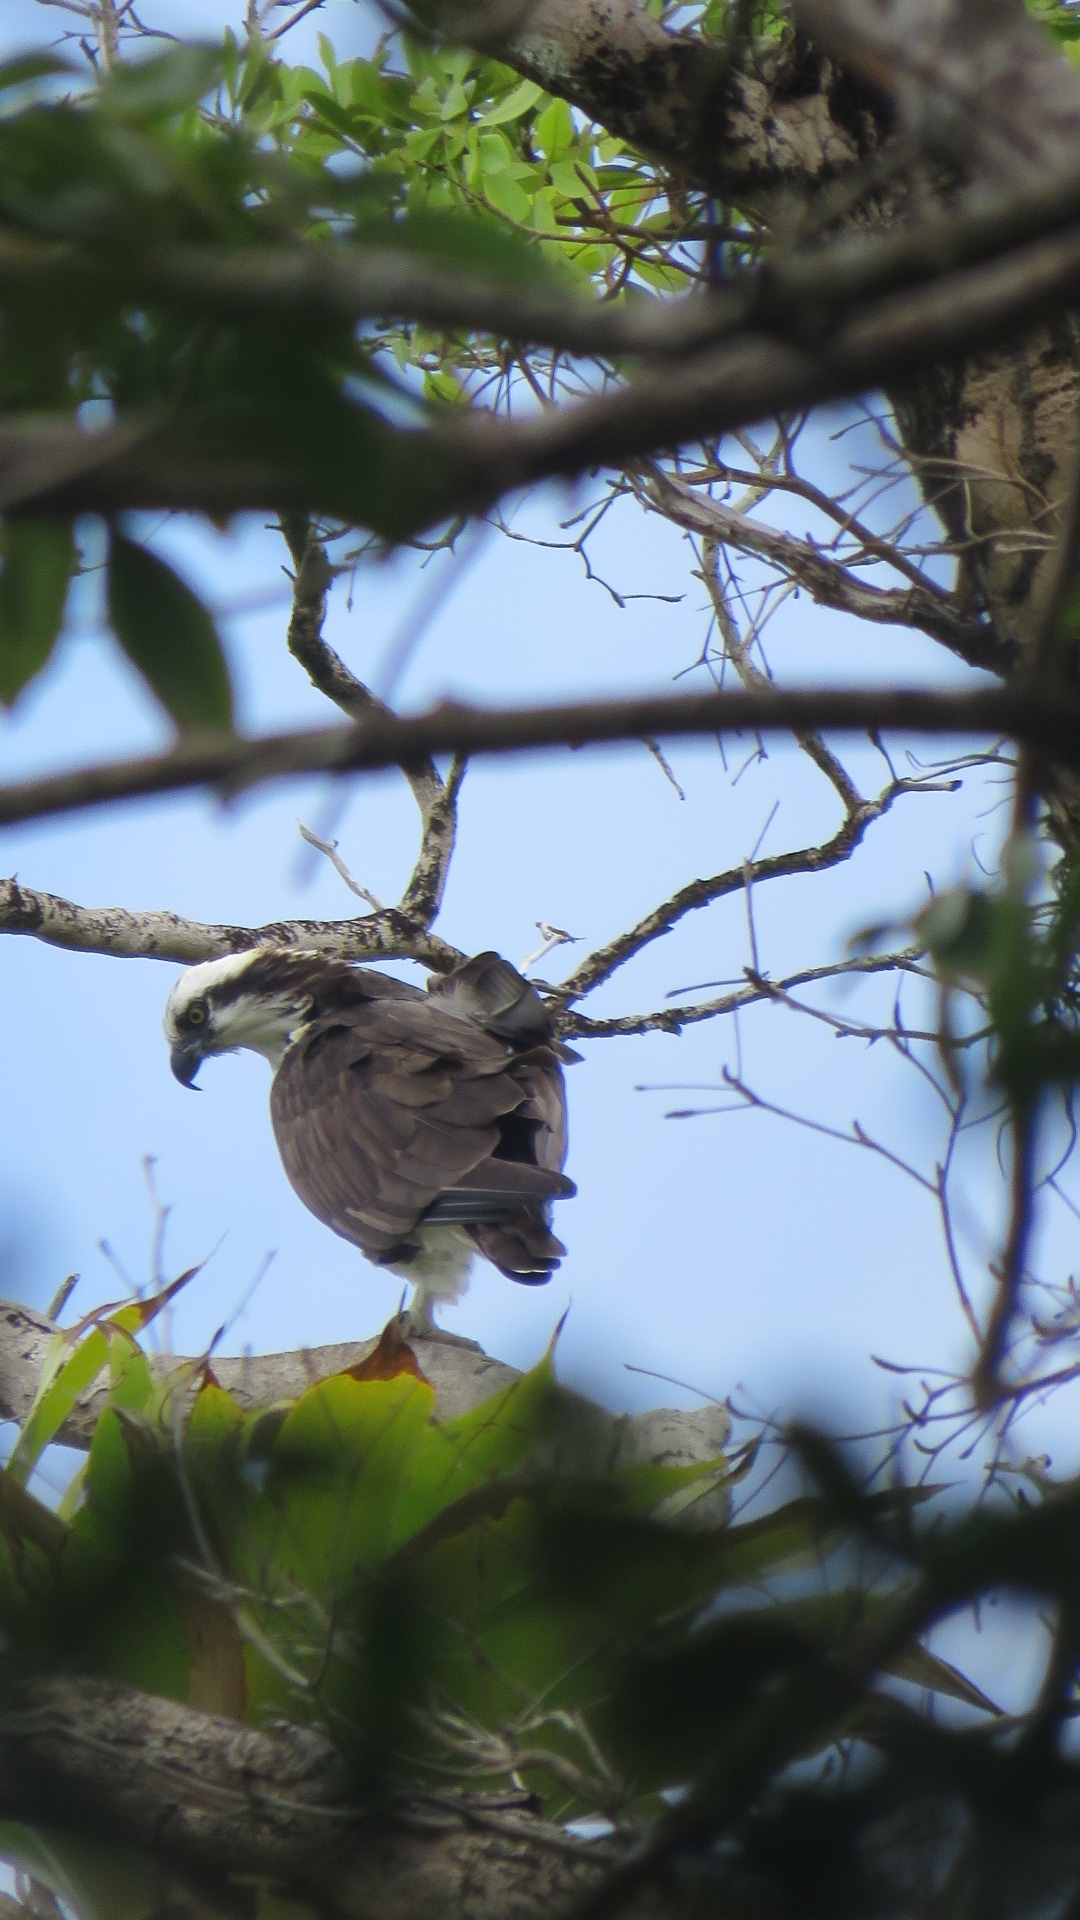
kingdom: Animalia
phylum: Chordata
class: Aves
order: Accipitriformes
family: Pandionidae
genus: Pandion
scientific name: Pandion haliaetus
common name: Osprey
